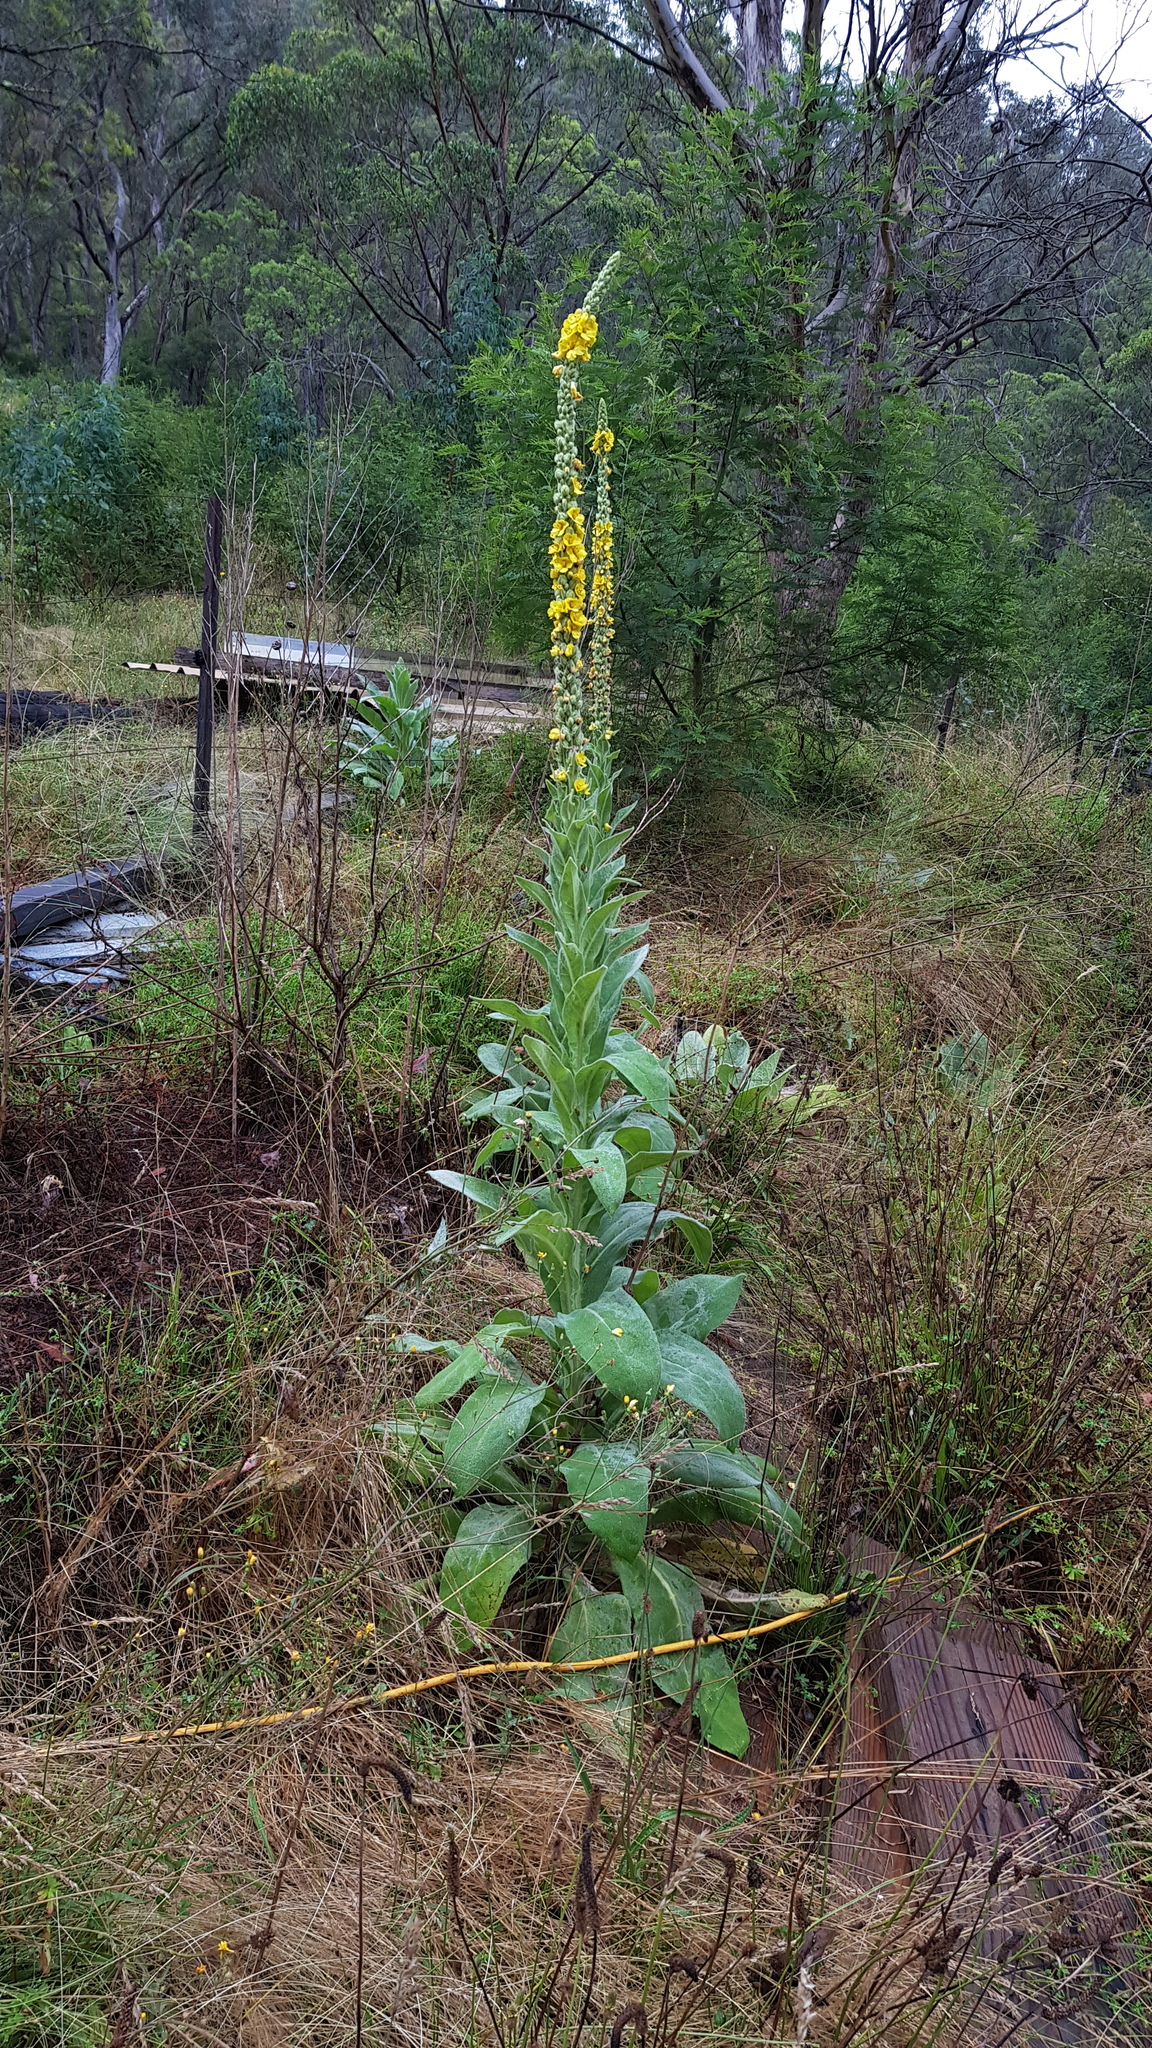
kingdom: Plantae
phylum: Tracheophyta
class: Magnoliopsida
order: Lamiales
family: Scrophulariaceae
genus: Verbascum
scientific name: Verbascum thapsus
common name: Common mullein
